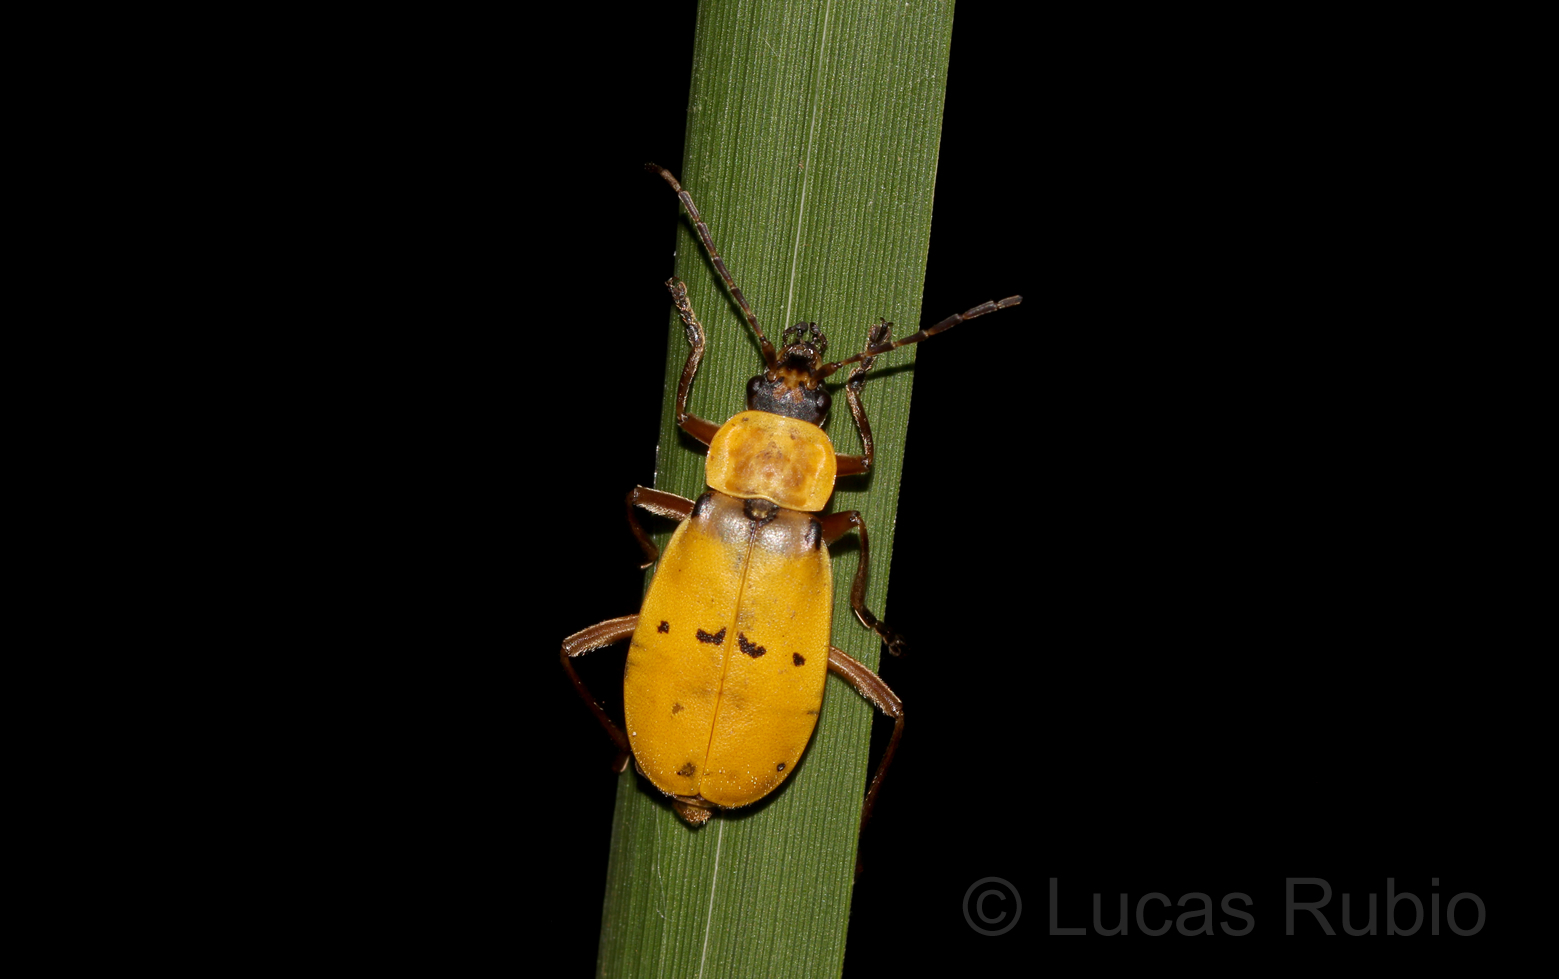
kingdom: Animalia
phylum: Arthropoda
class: Insecta
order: Coleoptera
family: Cantharidae
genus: Chauliognathus
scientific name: Chauliognathus
